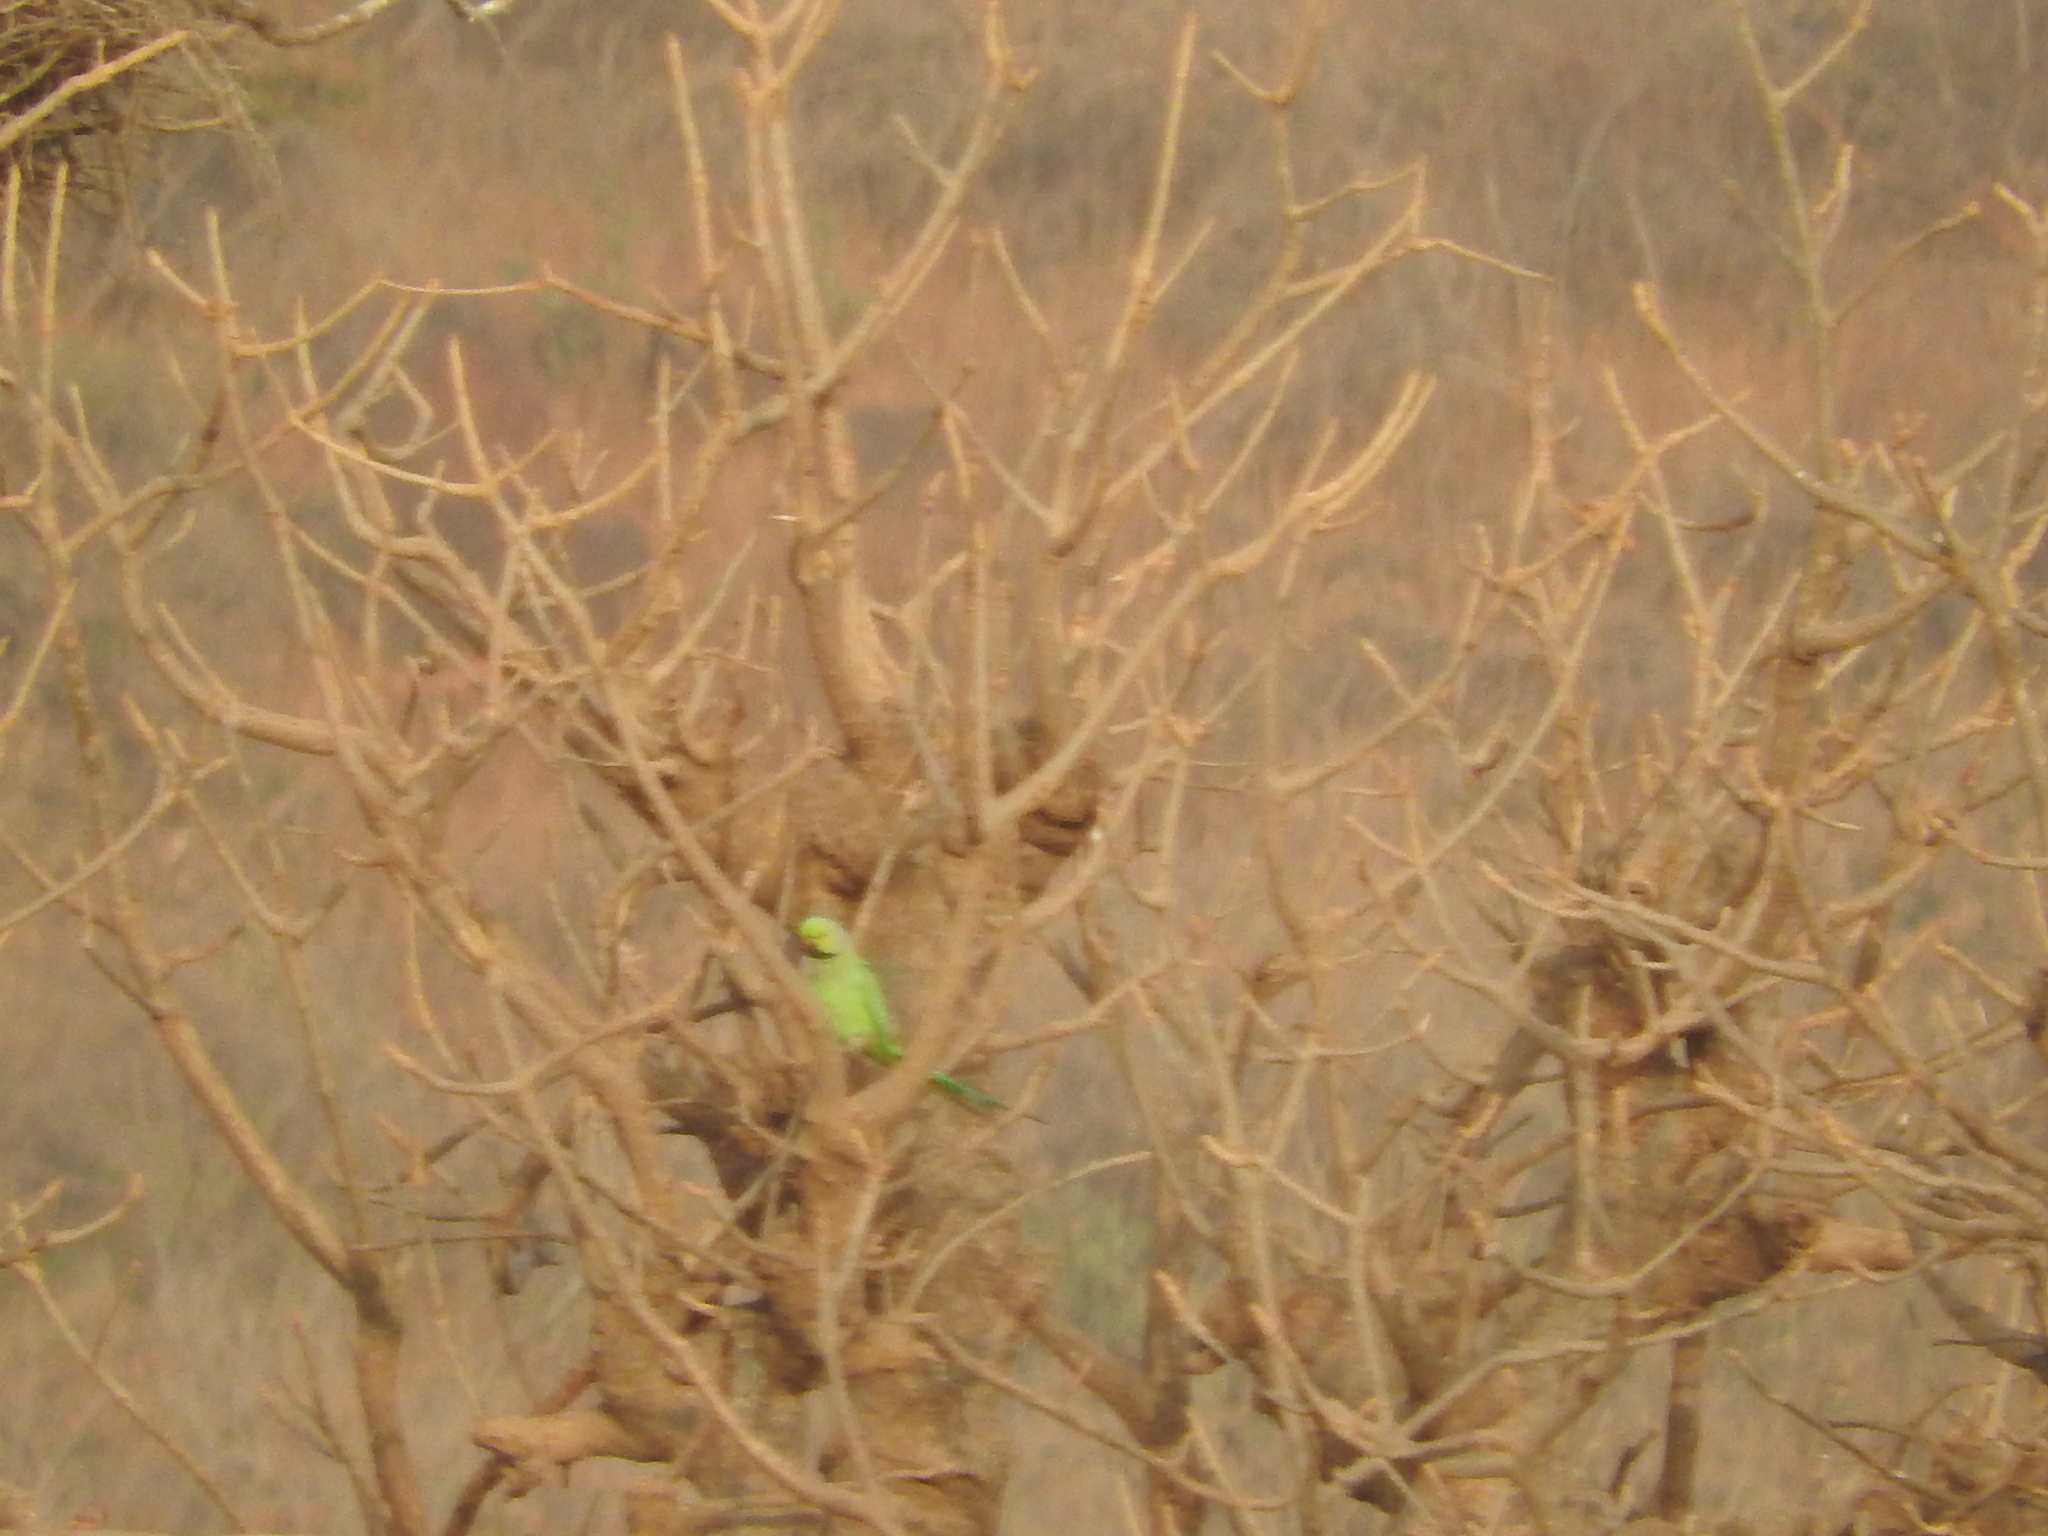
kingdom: Animalia
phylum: Chordata
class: Aves
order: Psittaciformes
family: Psittacidae
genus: Psittacula
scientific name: Psittacula krameri
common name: Rose-ringed parakeet
